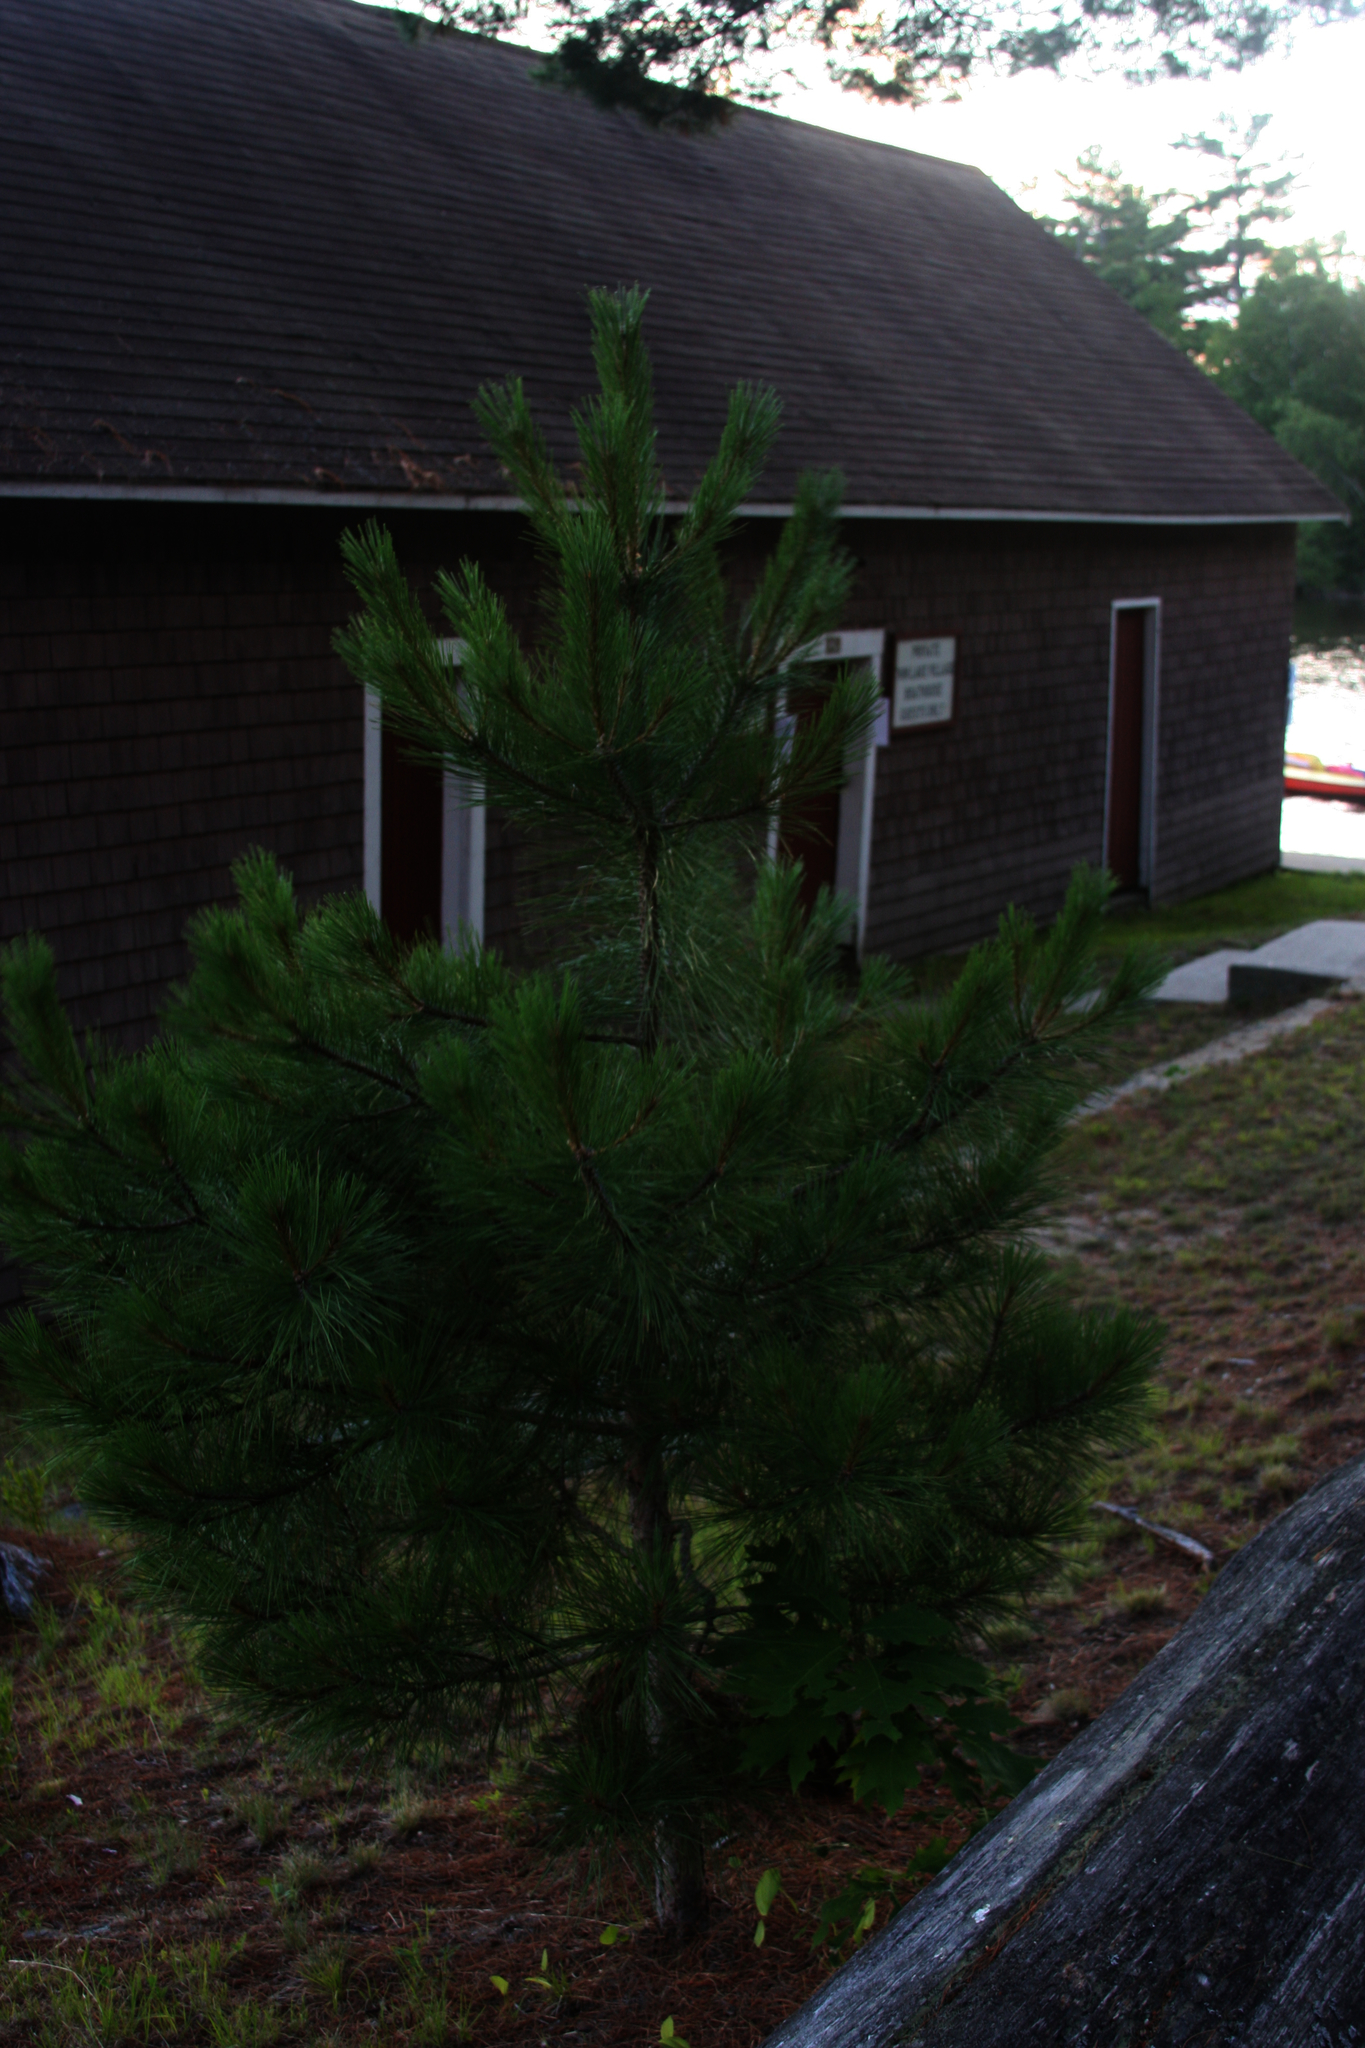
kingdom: Plantae
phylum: Tracheophyta
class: Pinopsida
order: Pinales
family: Pinaceae
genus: Pinus
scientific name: Pinus strobus
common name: Weymouth pine
